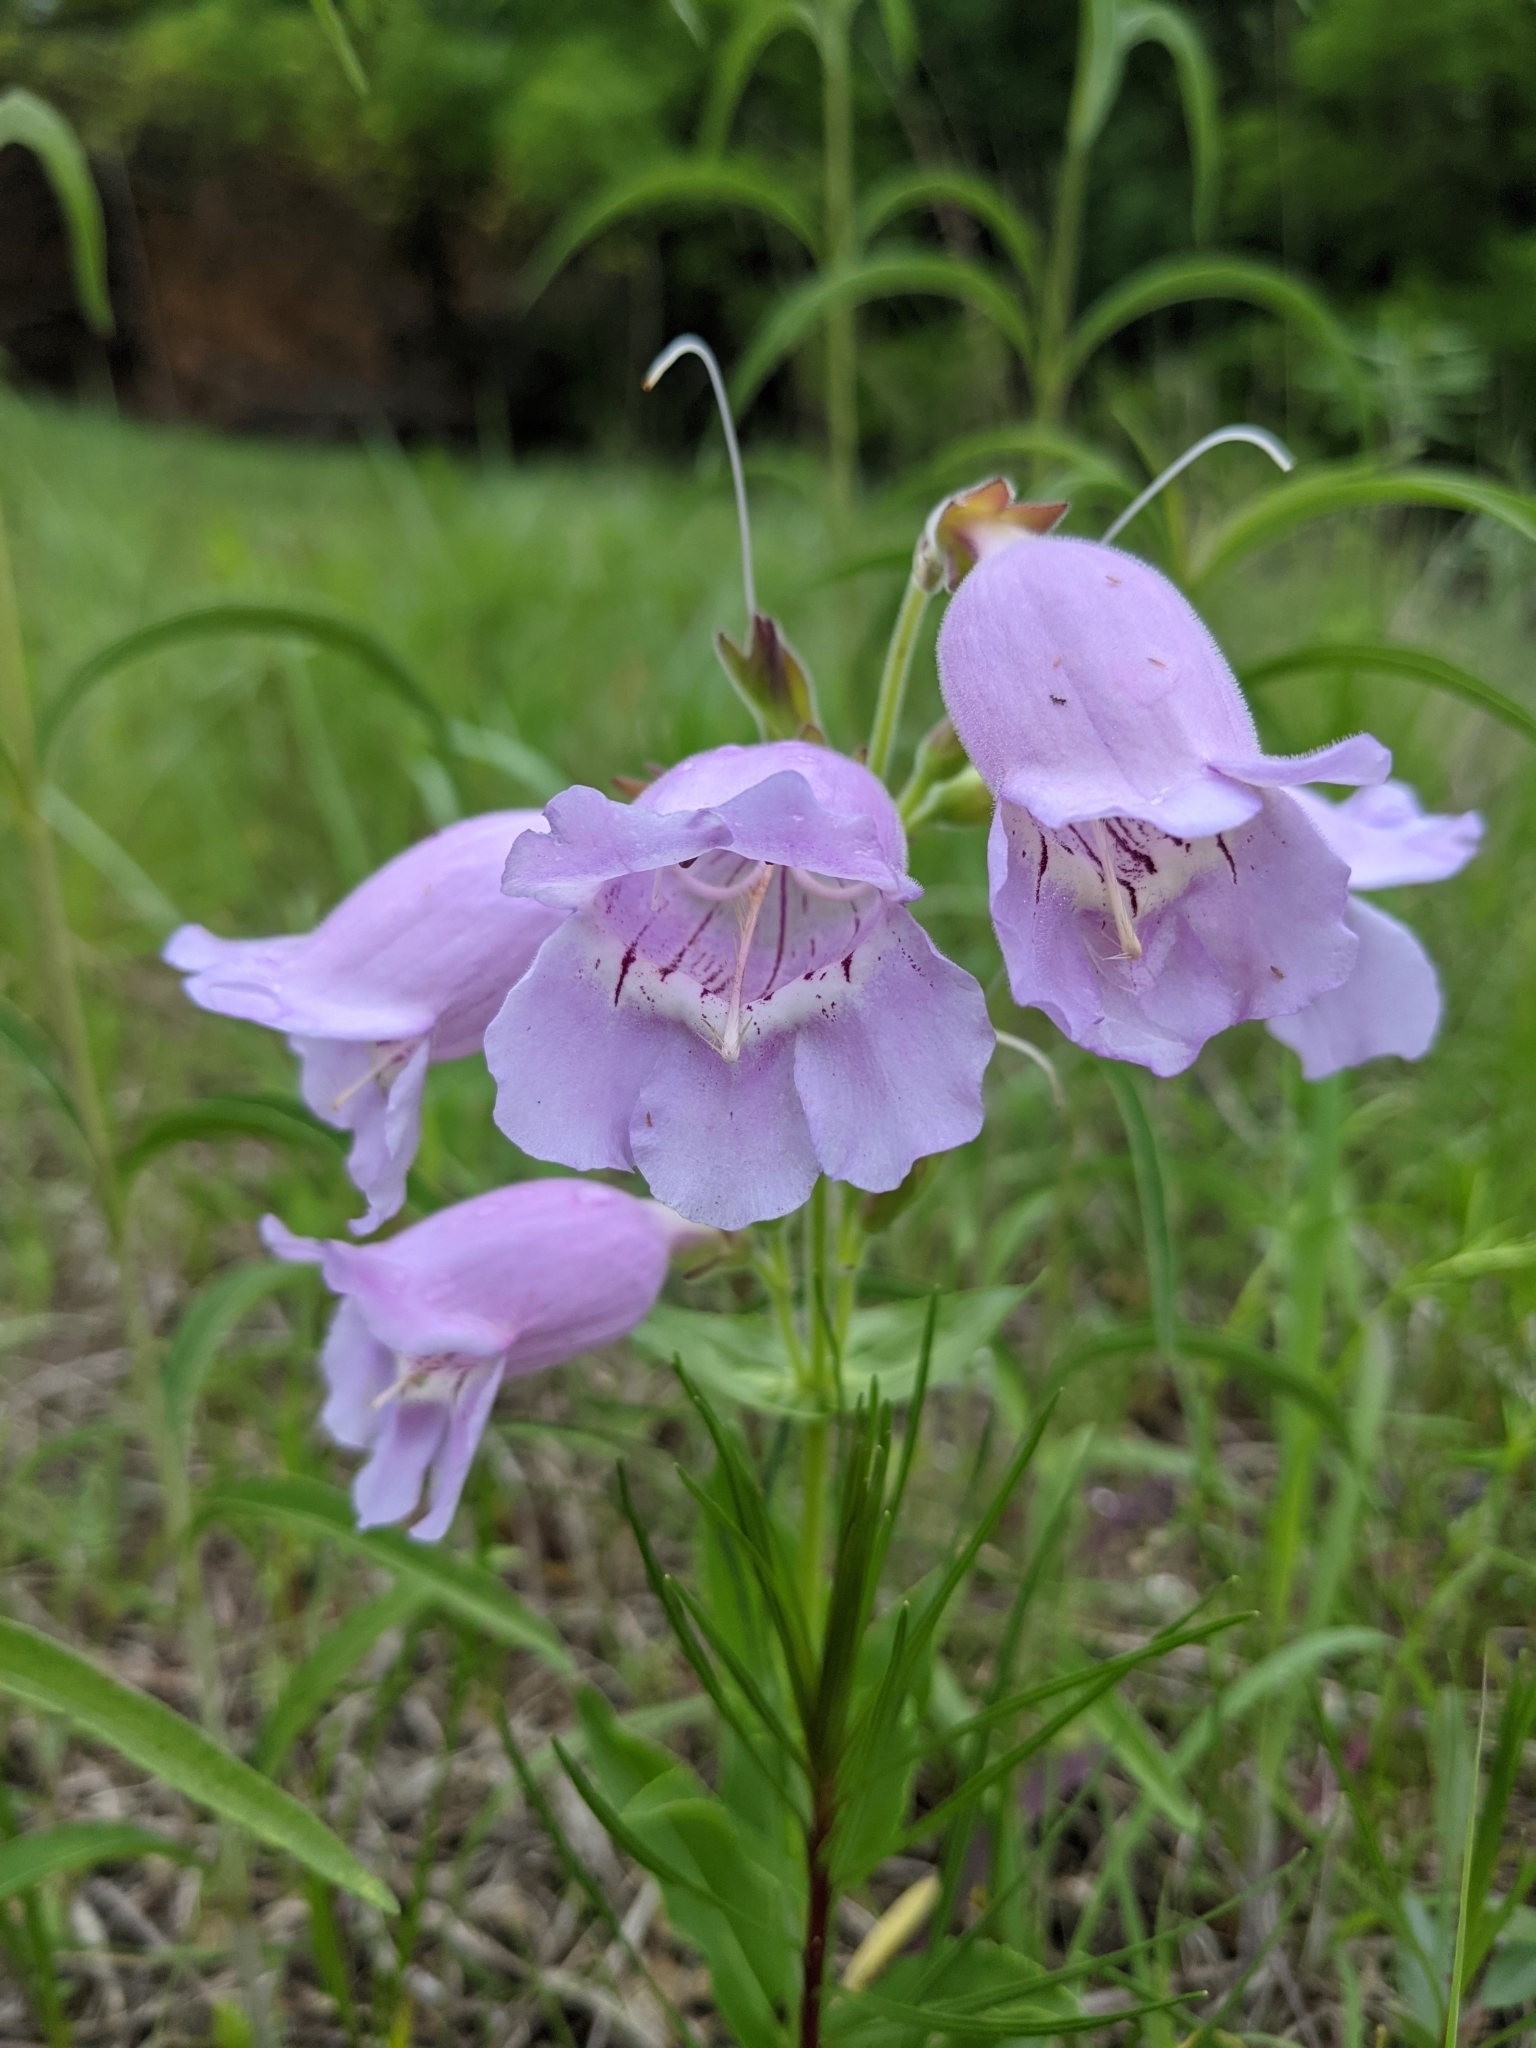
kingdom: Plantae
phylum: Tracheophyta
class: Magnoliopsida
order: Lamiales
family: Plantaginaceae
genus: Penstemon
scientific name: Penstemon cobaea
